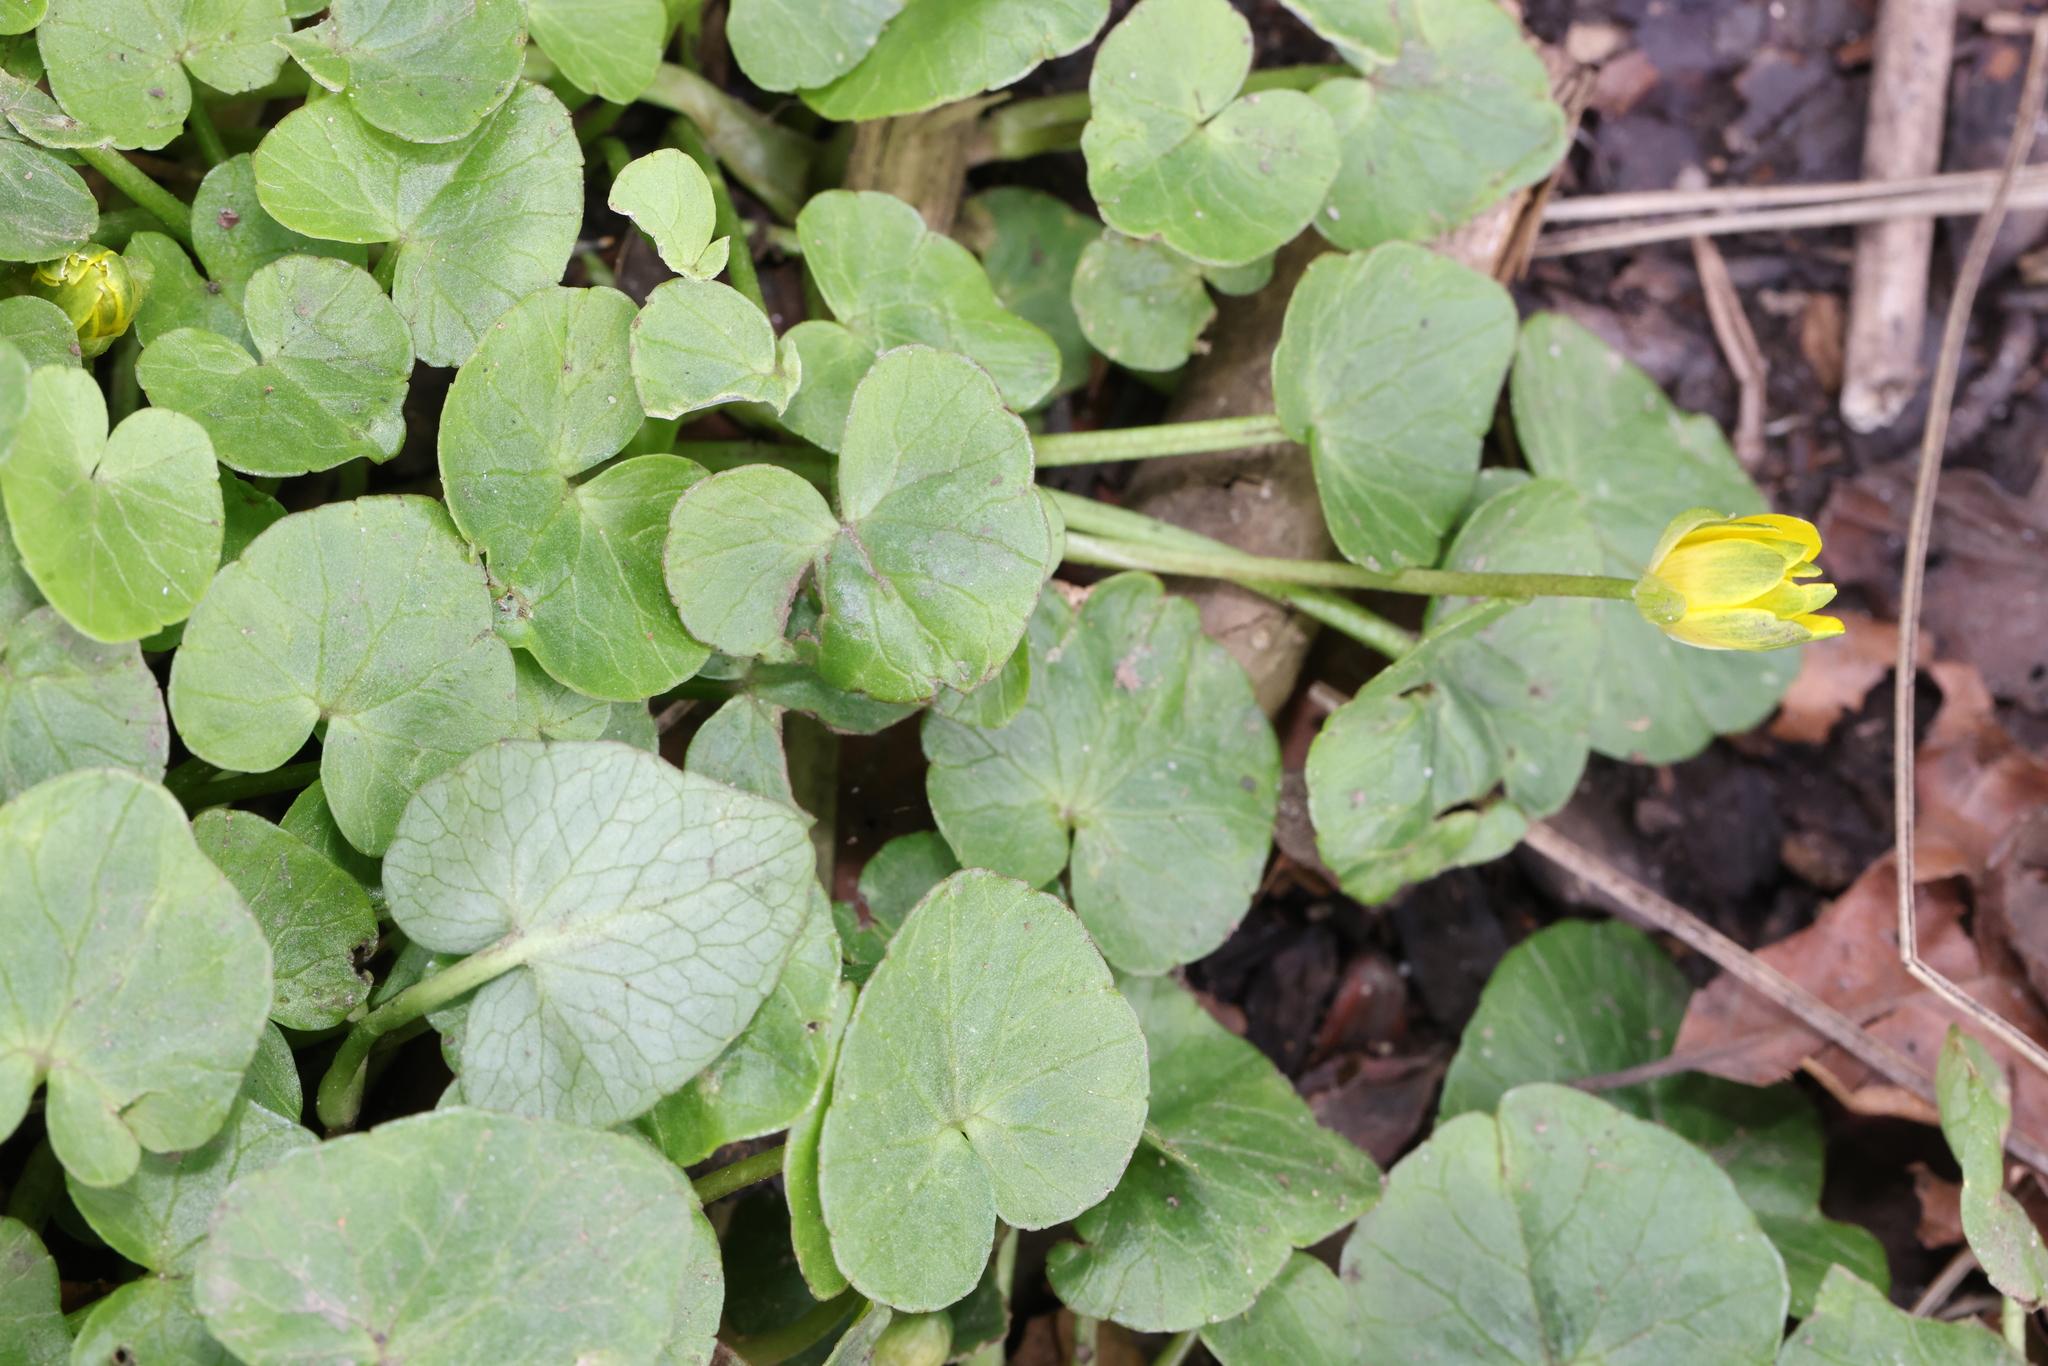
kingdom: Plantae
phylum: Tracheophyta
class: Magnoliopsida
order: Ranunculales
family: Ranunculaceae
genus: Ficaria
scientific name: Ficaria verna
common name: Lesser celandine
